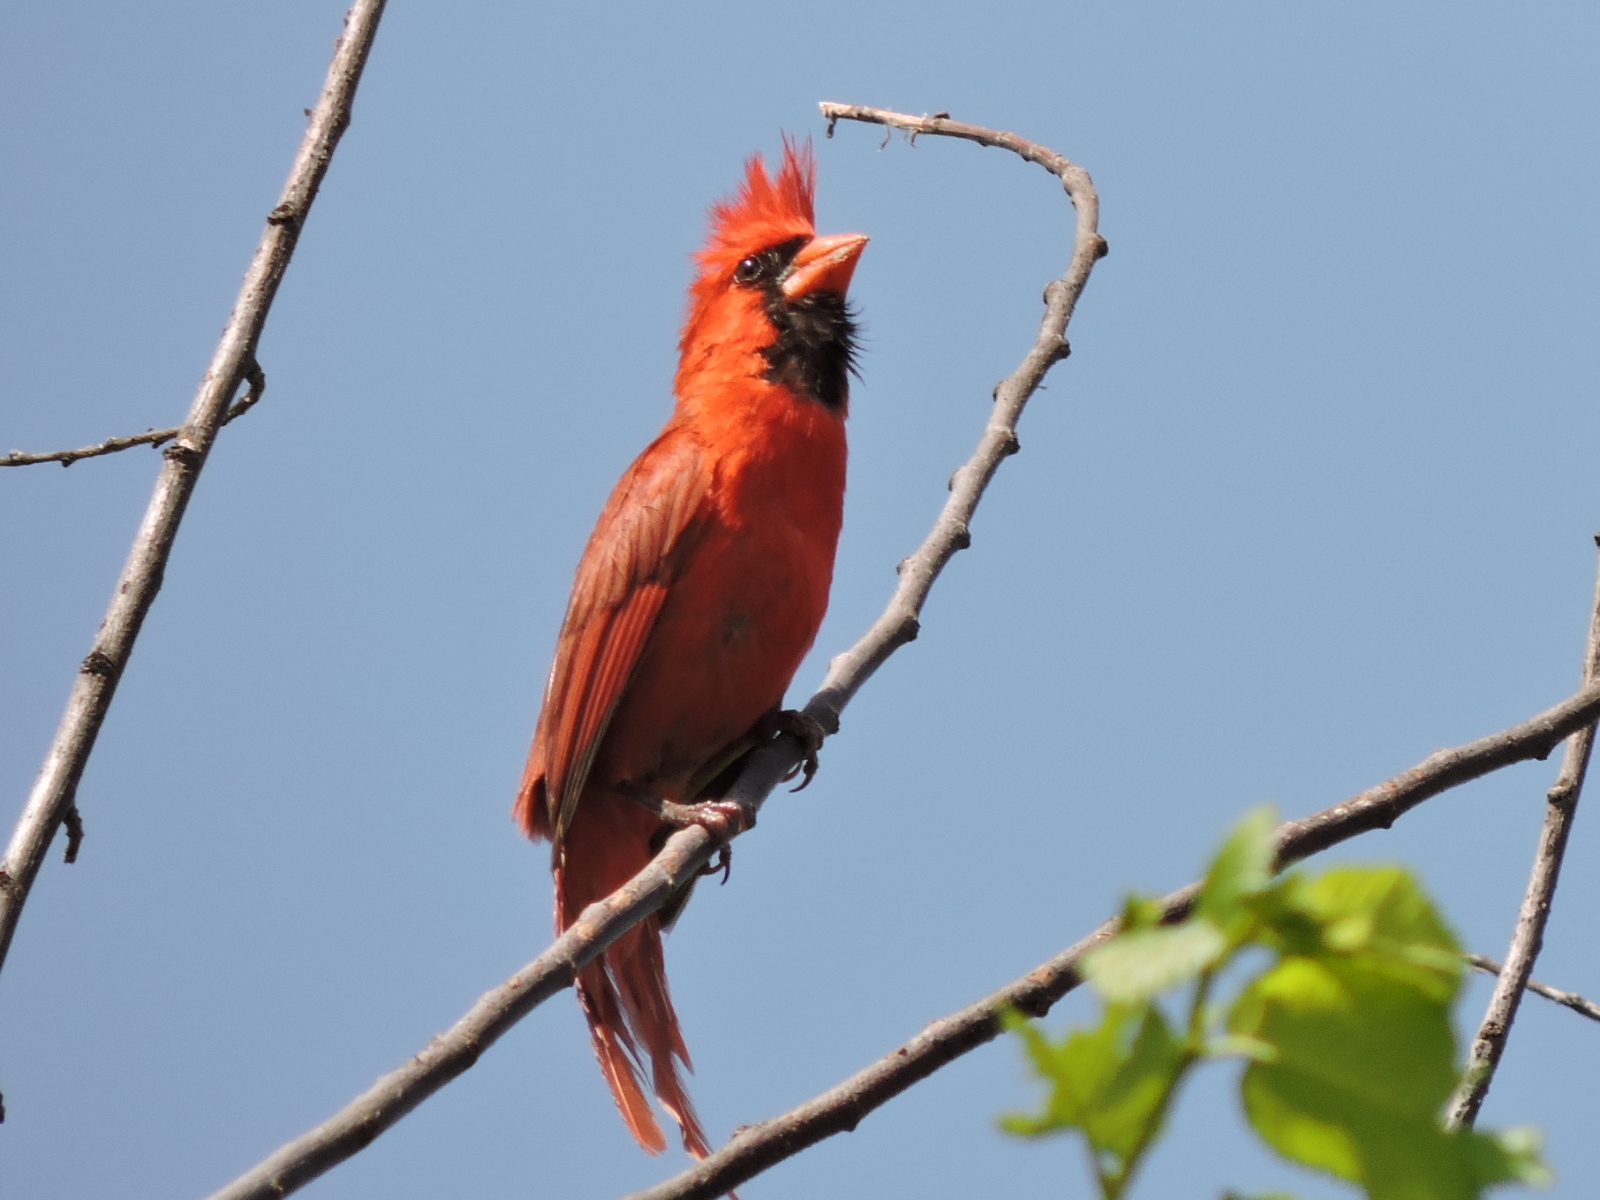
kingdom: Animalia
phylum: Chordata
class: Aves
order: Passeriformes
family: Cardinalidae
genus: Cardinalis
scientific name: Cardinalis cardinalis
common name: Northern cardinal
